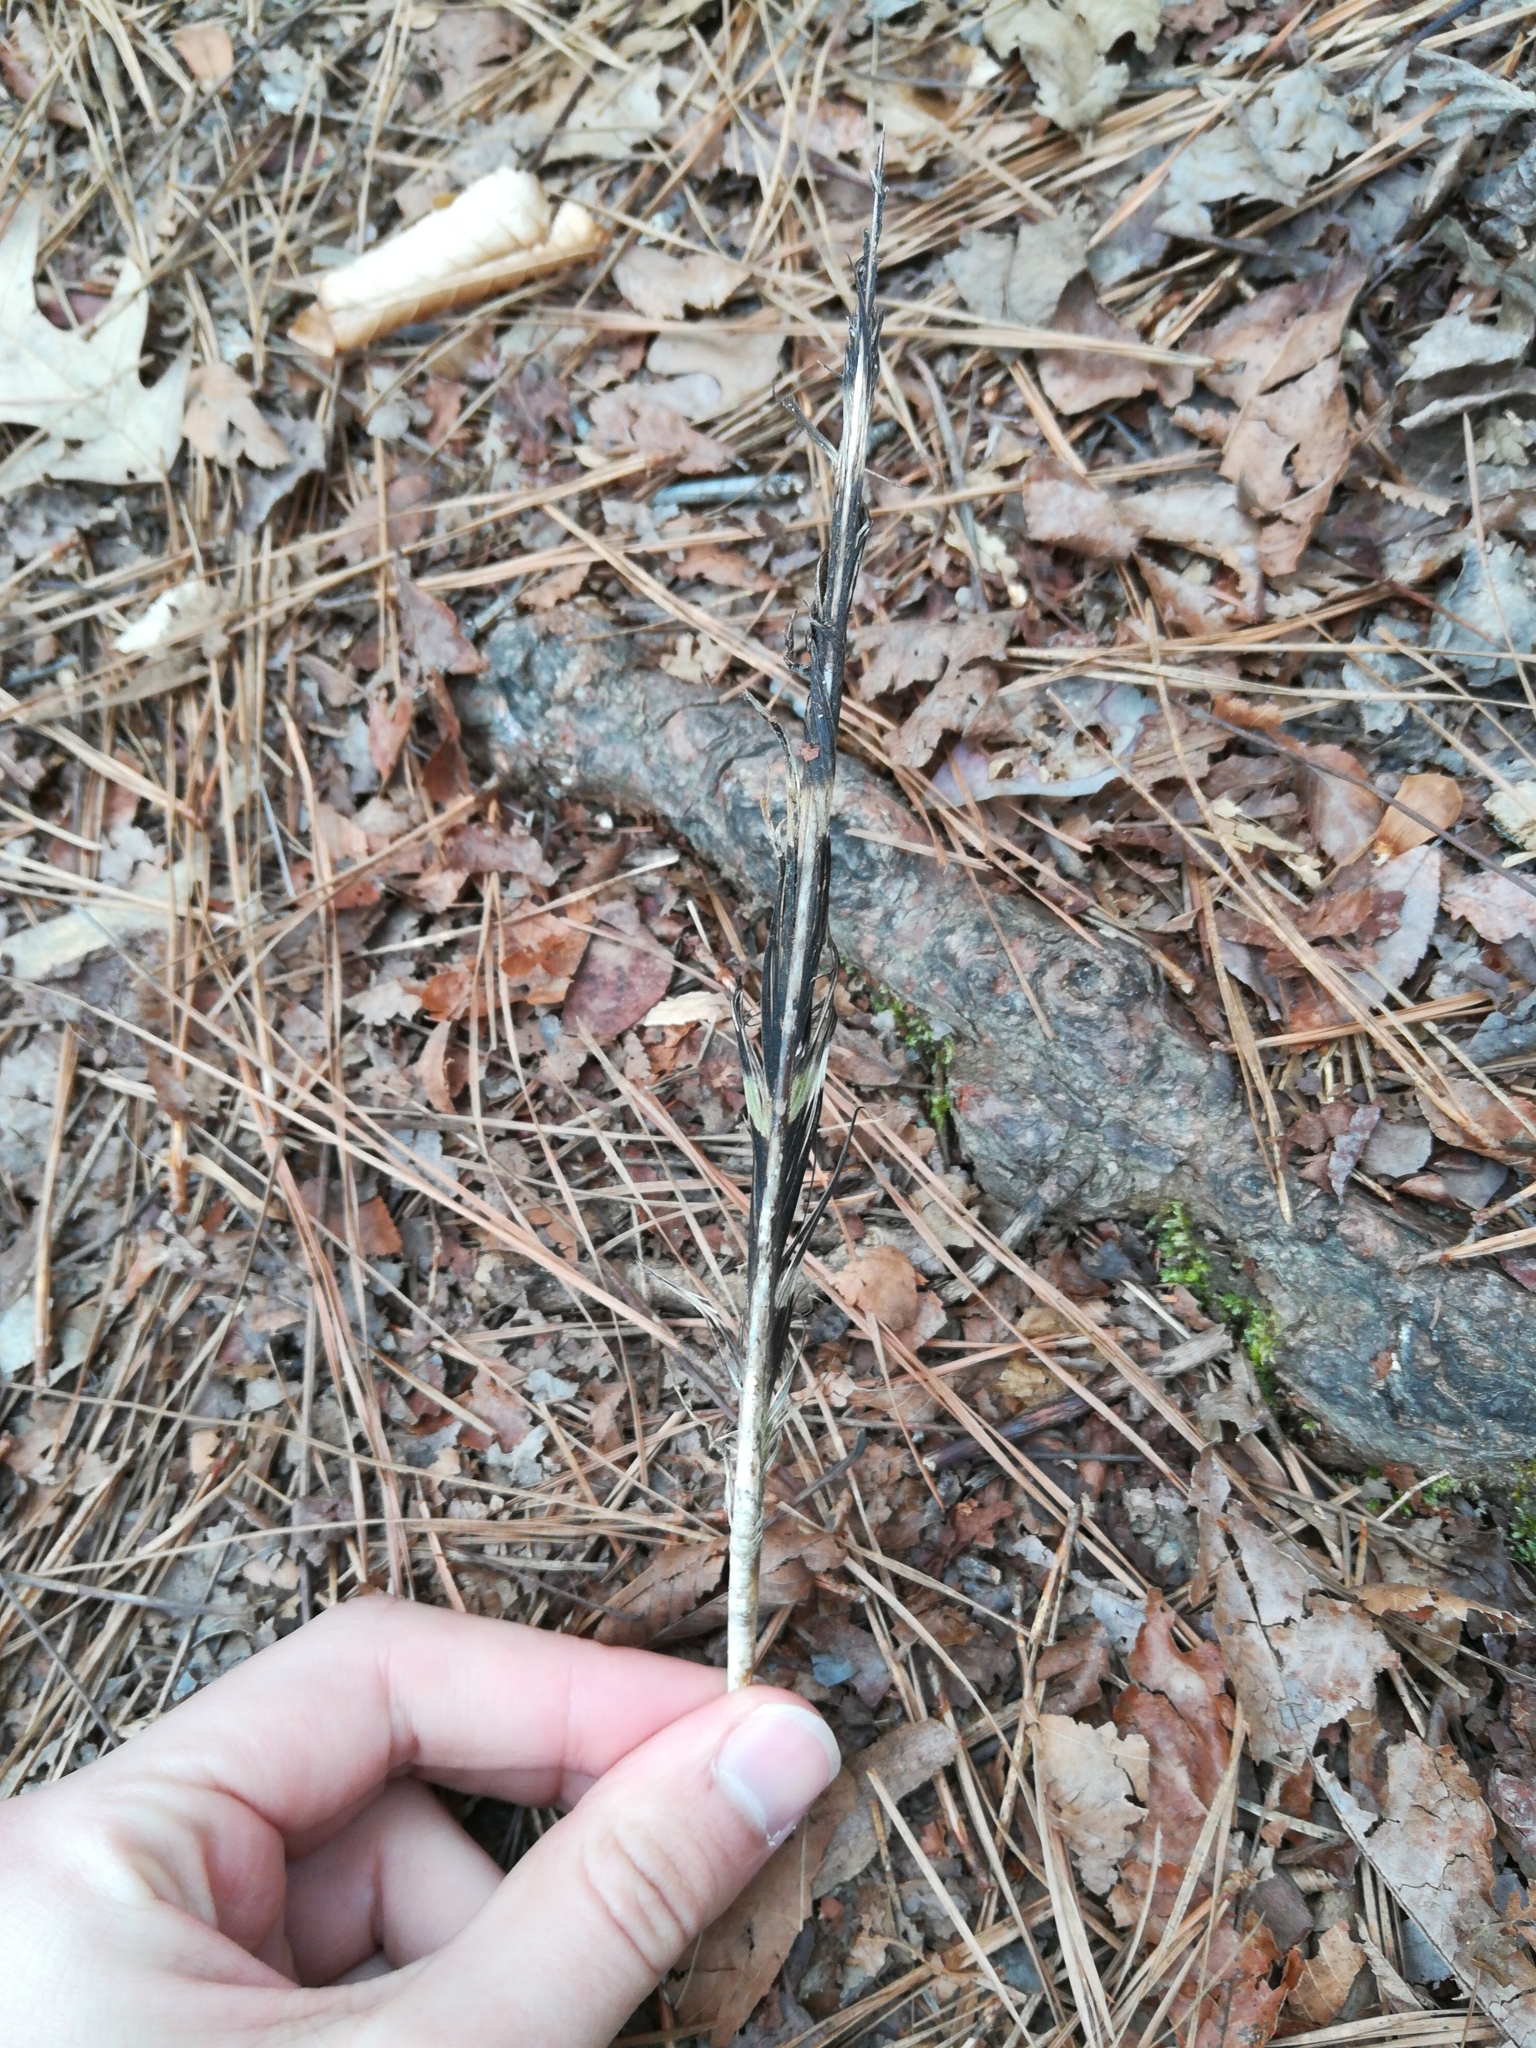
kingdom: Animalia
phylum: Chordata
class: Aves
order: Accipitriformes
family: Accipitridae
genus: Buteo
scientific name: Buteo lineatus
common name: Red-shouldered hawk
